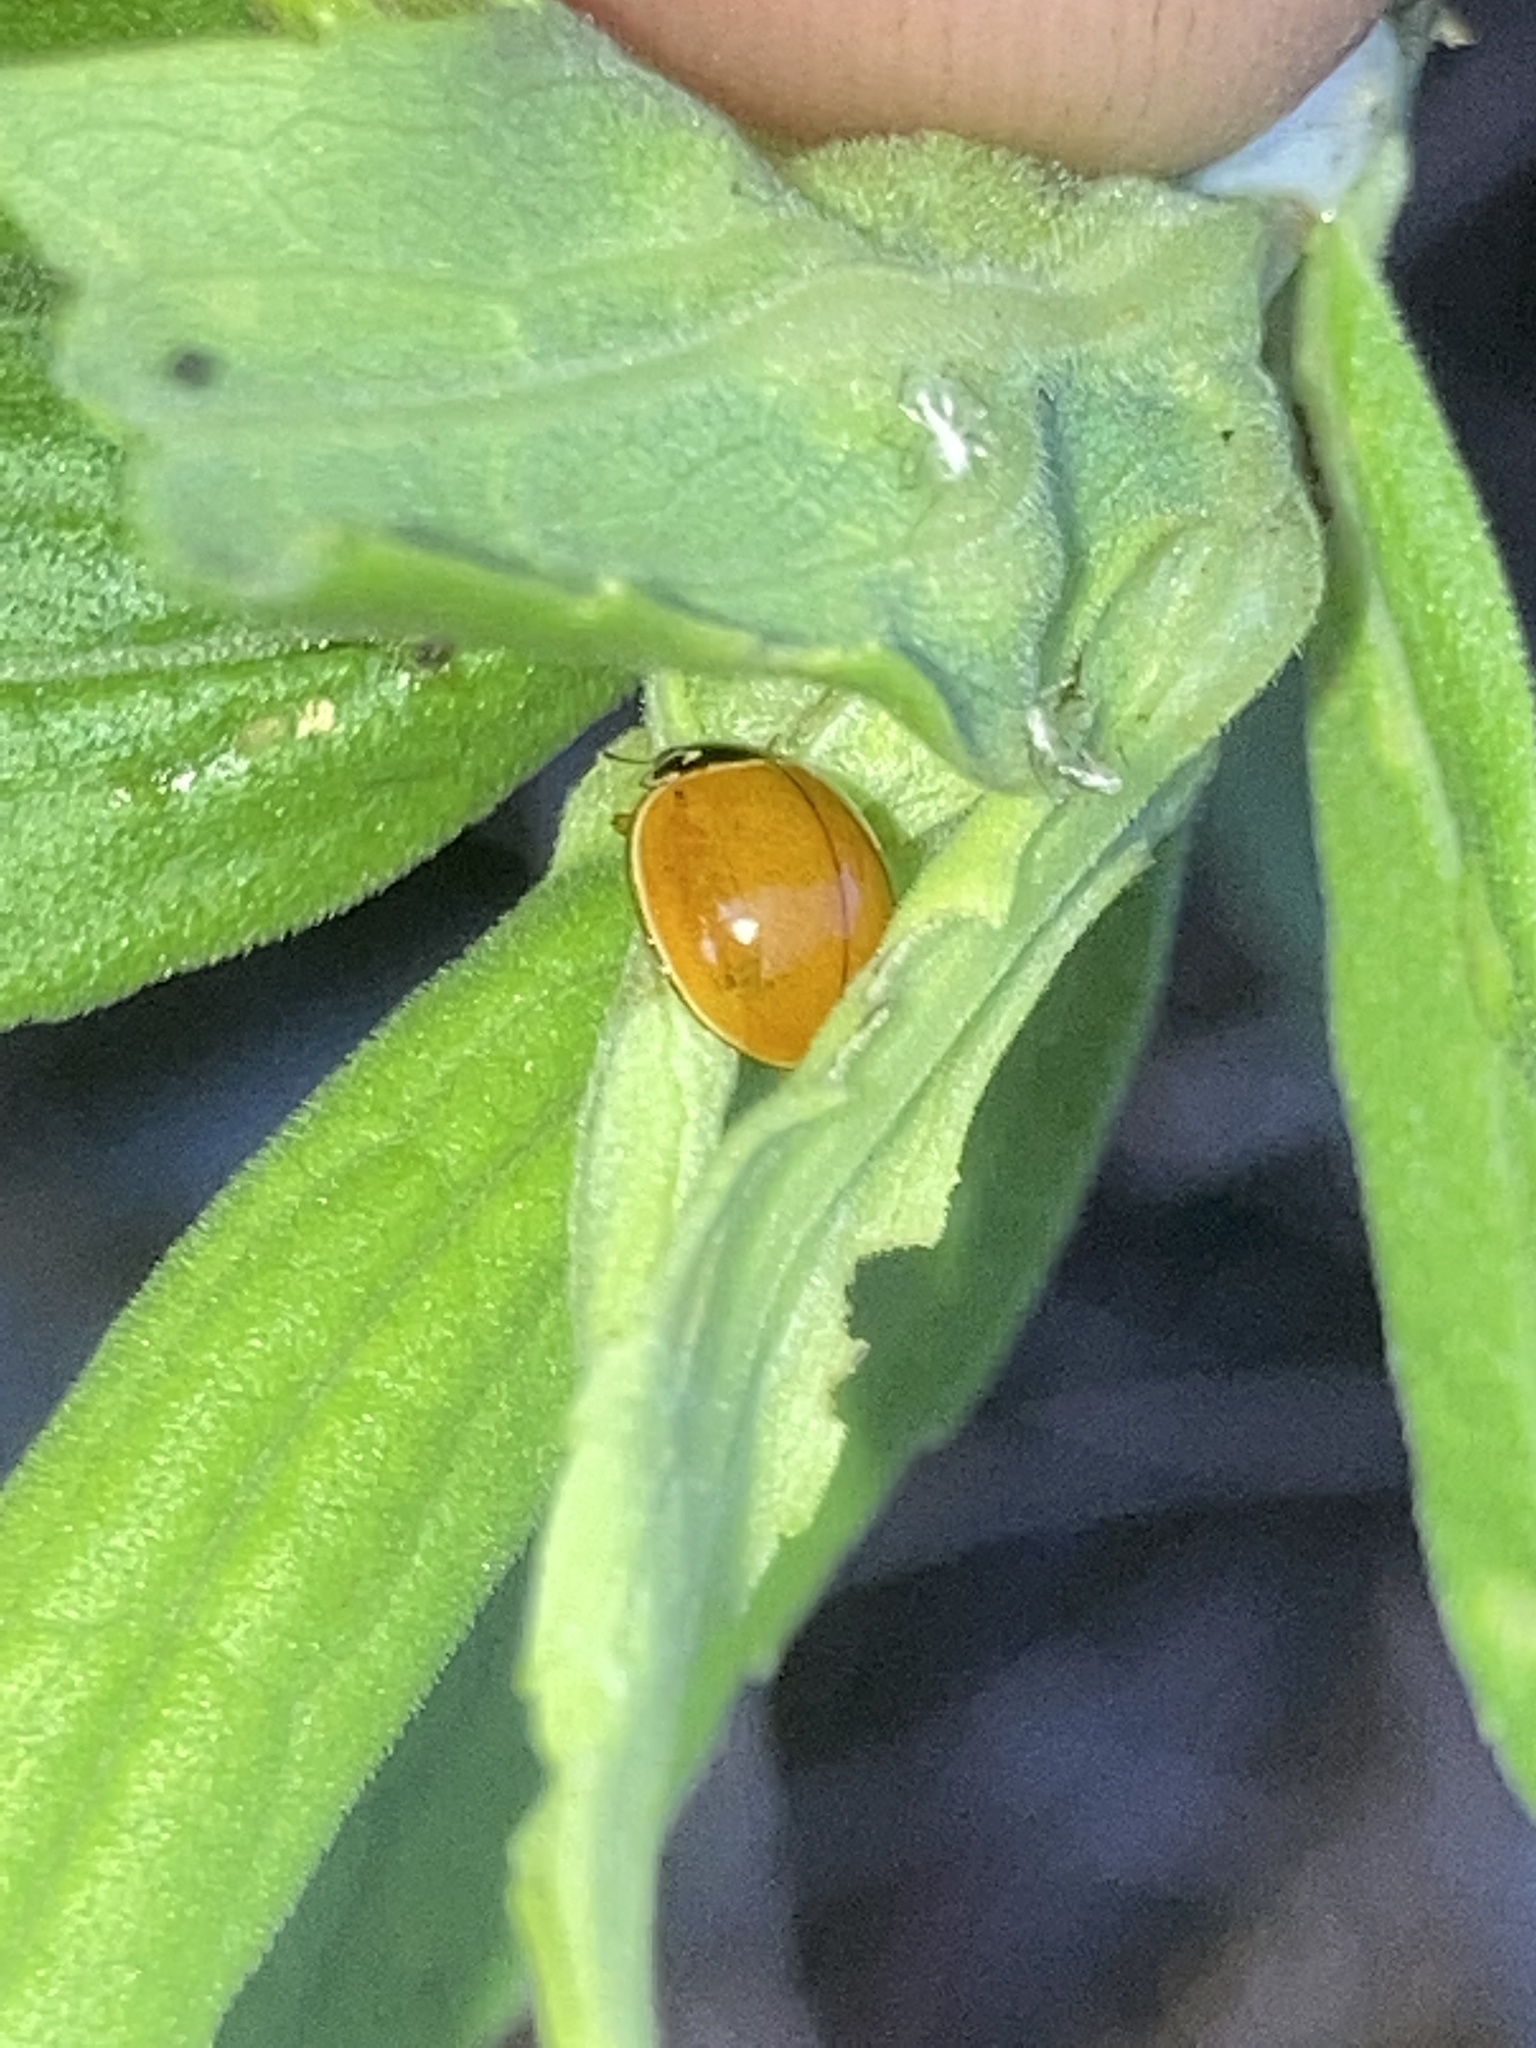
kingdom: Animalia
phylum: Arthropoda
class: Insecta
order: Coleoptera
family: Coccinellidae
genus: Cycloneda
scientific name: Cycloneda munda
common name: Polished lady beetle
